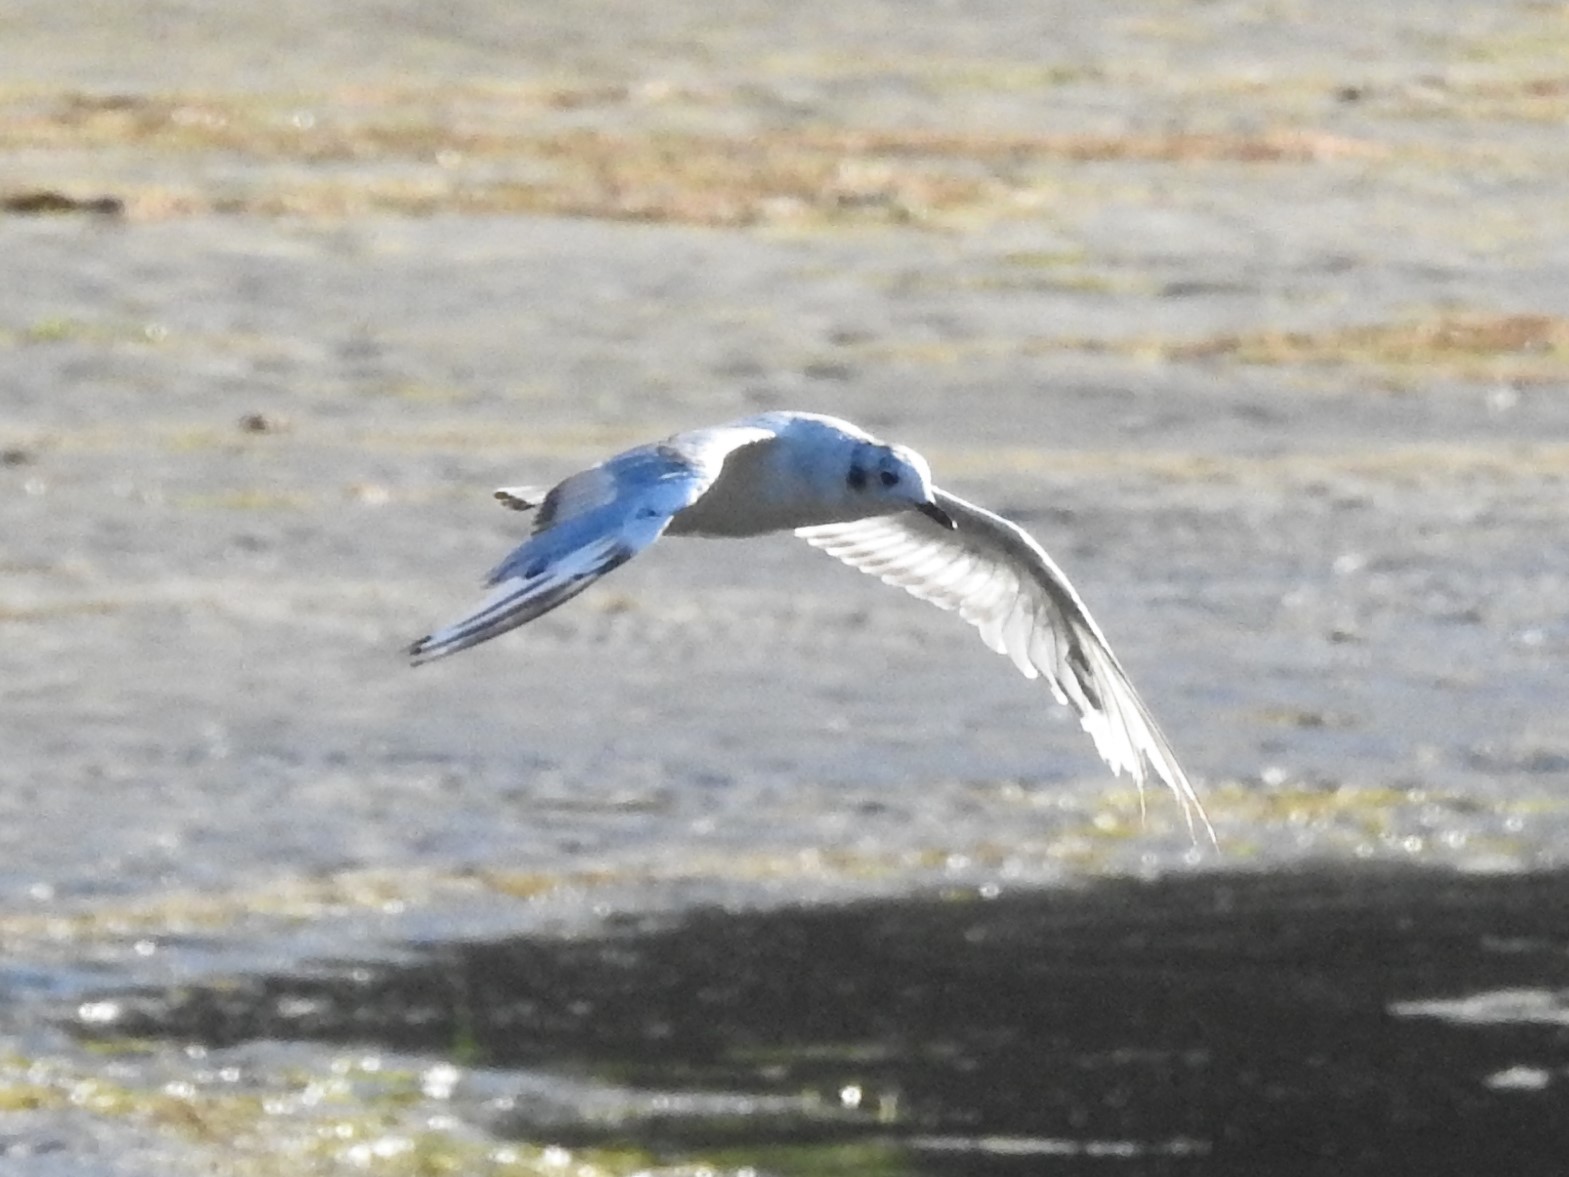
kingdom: Animalia
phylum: Chordata
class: Aves
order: Charadriiformes
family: Laridae
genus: Chroicocephalus
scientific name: Chroicocephalus philadelphia
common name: Bonaparte's gull
